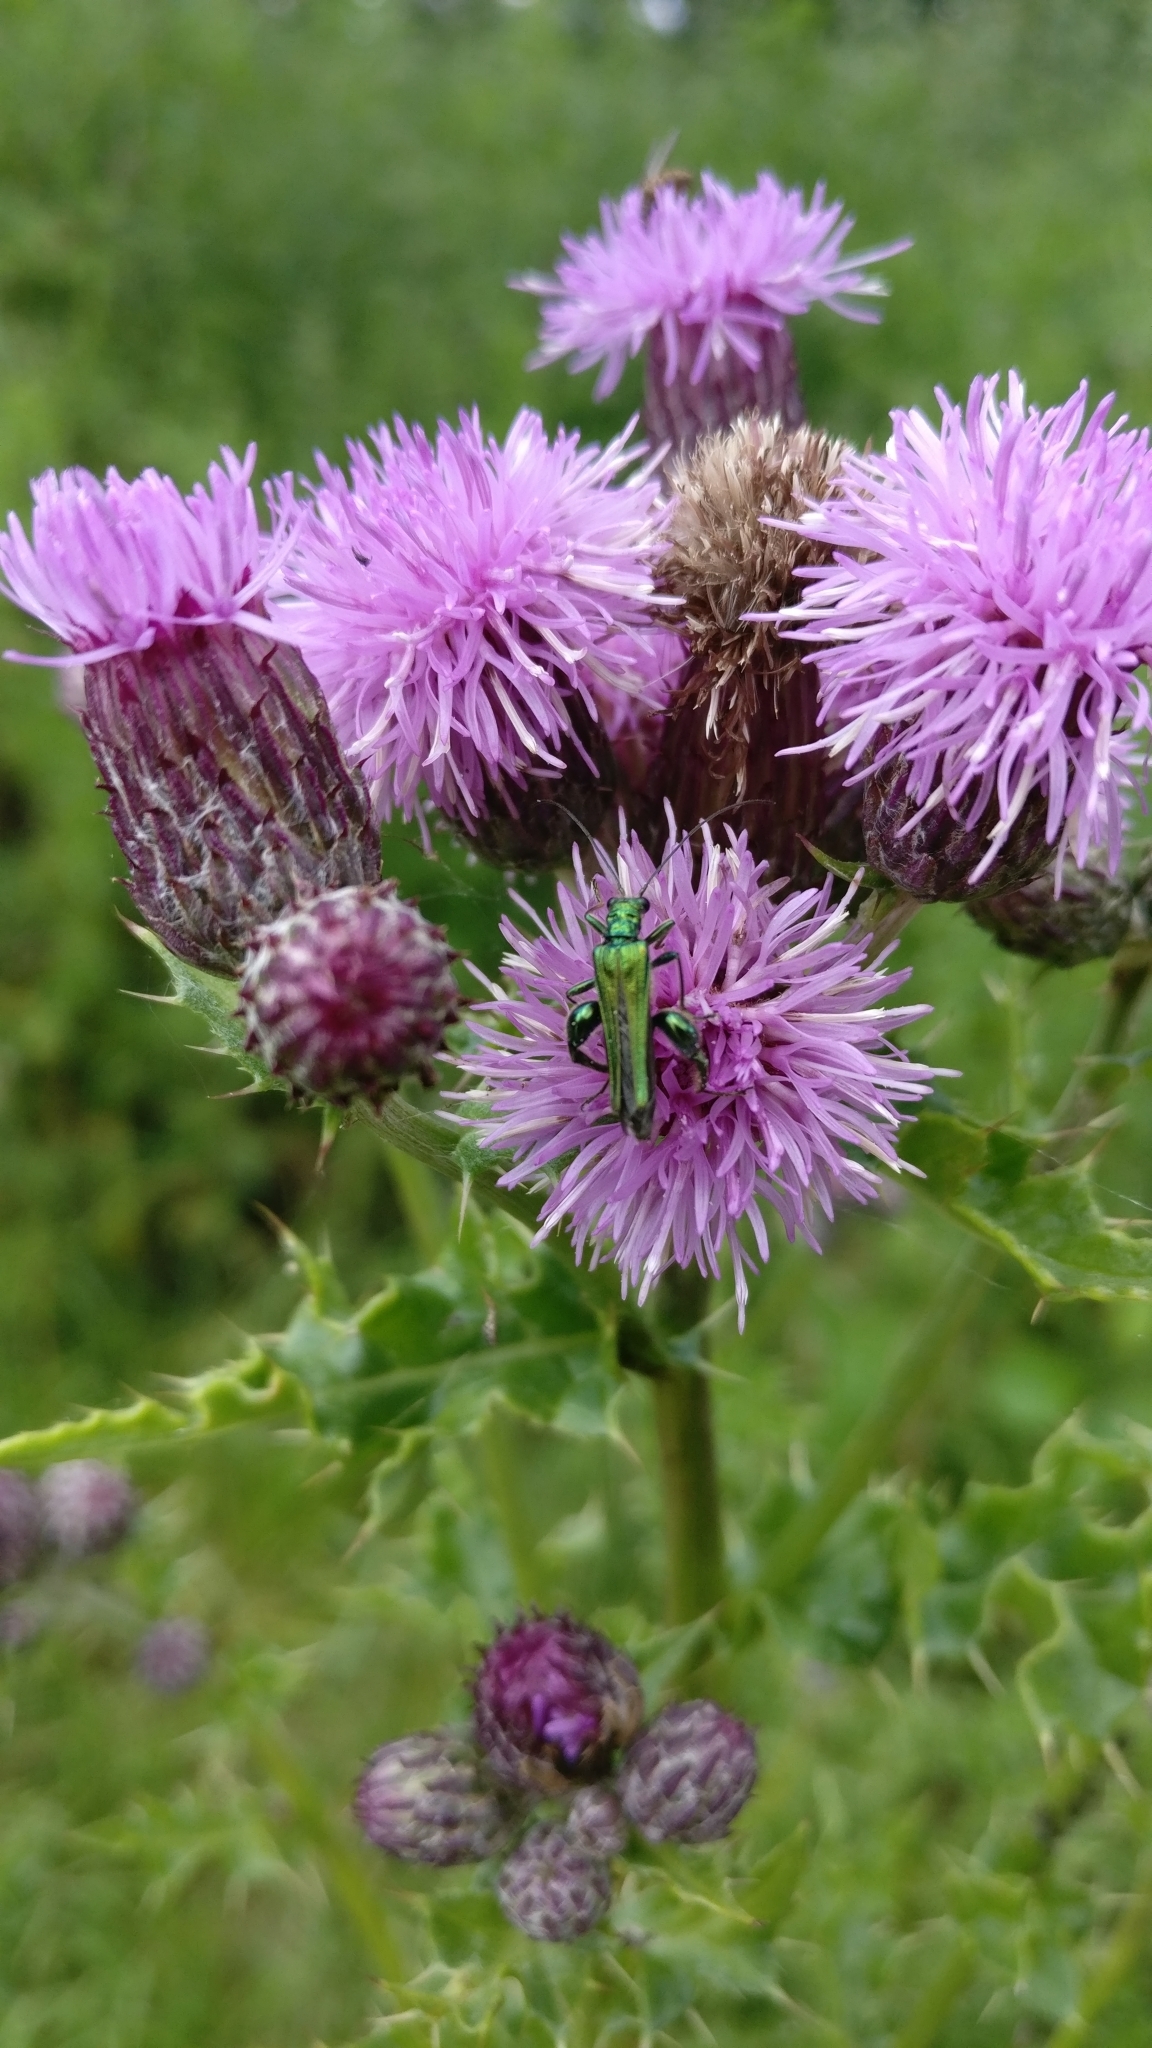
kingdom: Animalia
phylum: Arthropoda
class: Insecta
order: Coleoptera
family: Oedemeridae
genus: Oedemera
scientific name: Oedemera nobilis
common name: Swollen-thighed beetle
